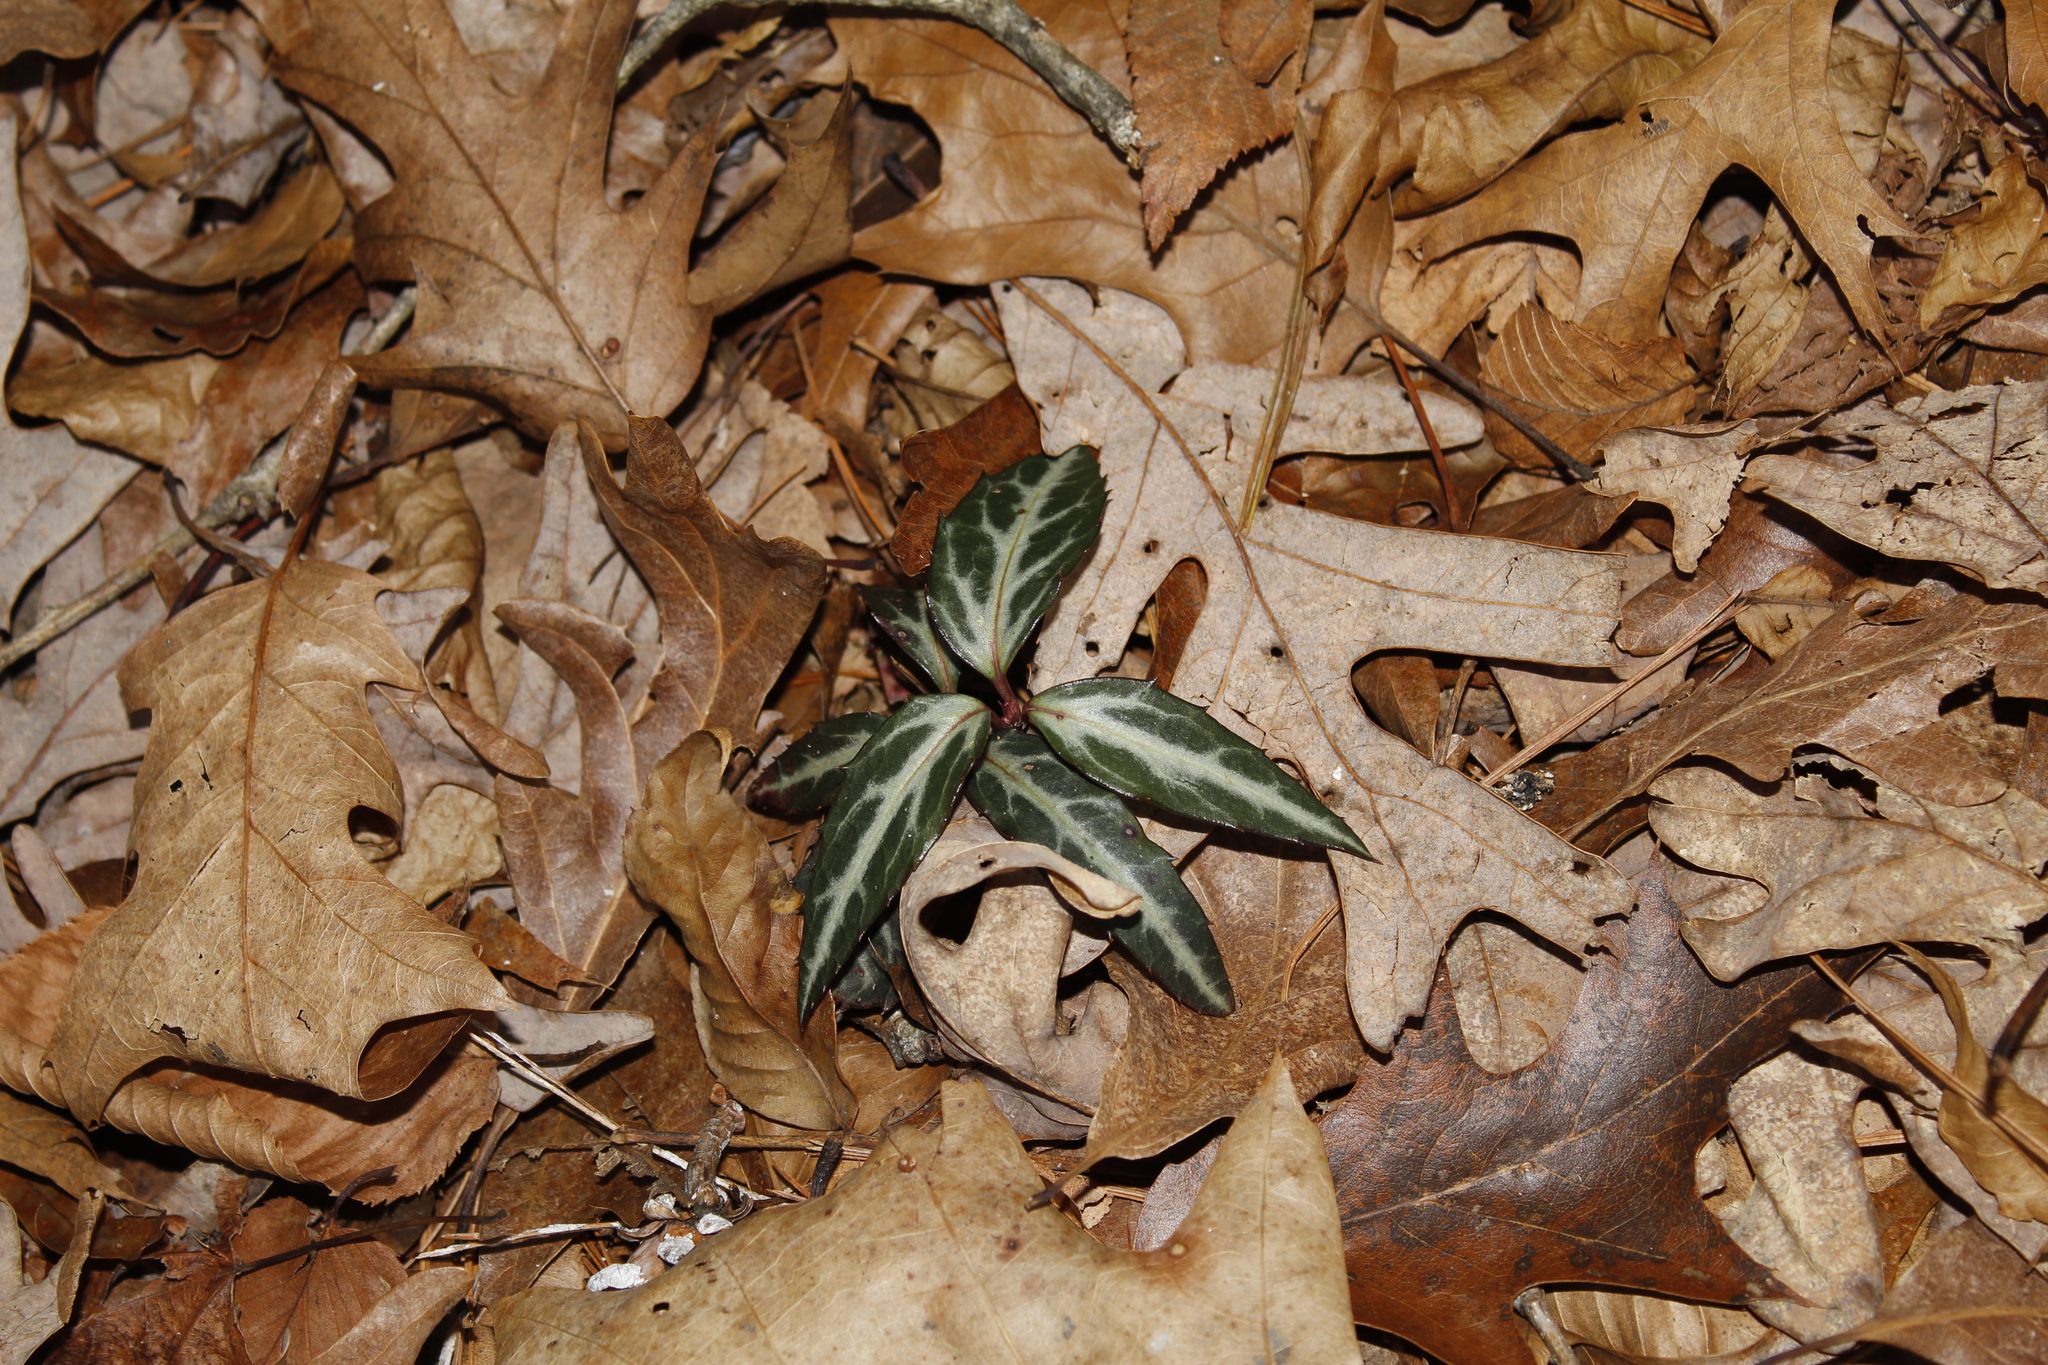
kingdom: Plantae
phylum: Tracheophyta
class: Magnoliopsida
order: Ericales
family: Ericaceae
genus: Chimaphila
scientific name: Chimaphila maculata
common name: Spotted pipsissewa
